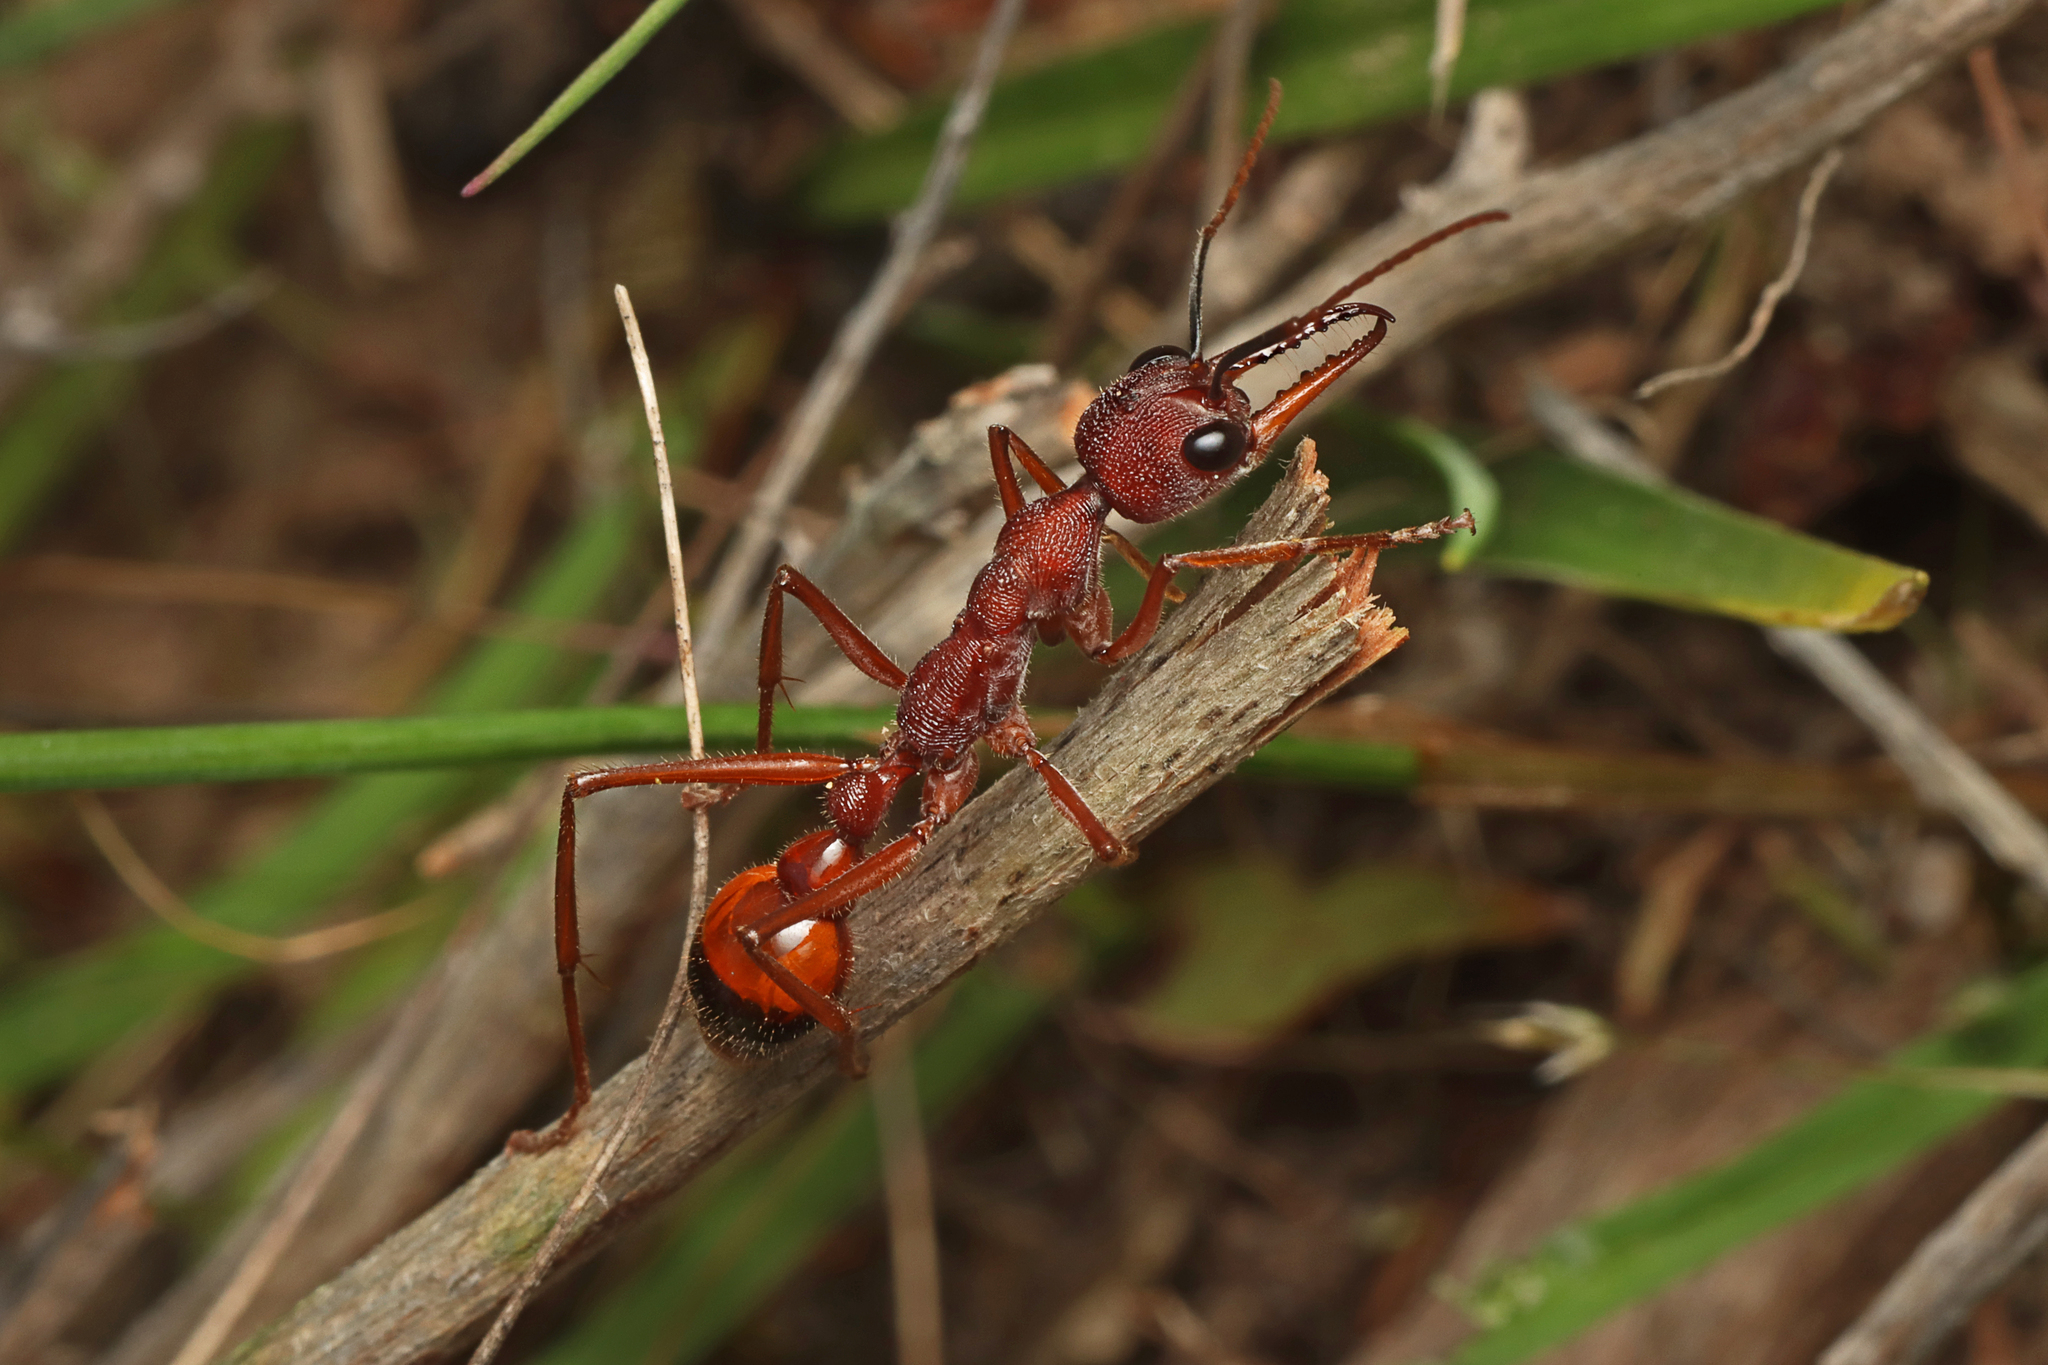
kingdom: Animalia
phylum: Arthropoda
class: Insecta
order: Hymenoptera
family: Formicidae
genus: Myrmecia
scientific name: Myrmecia nigriscapa
